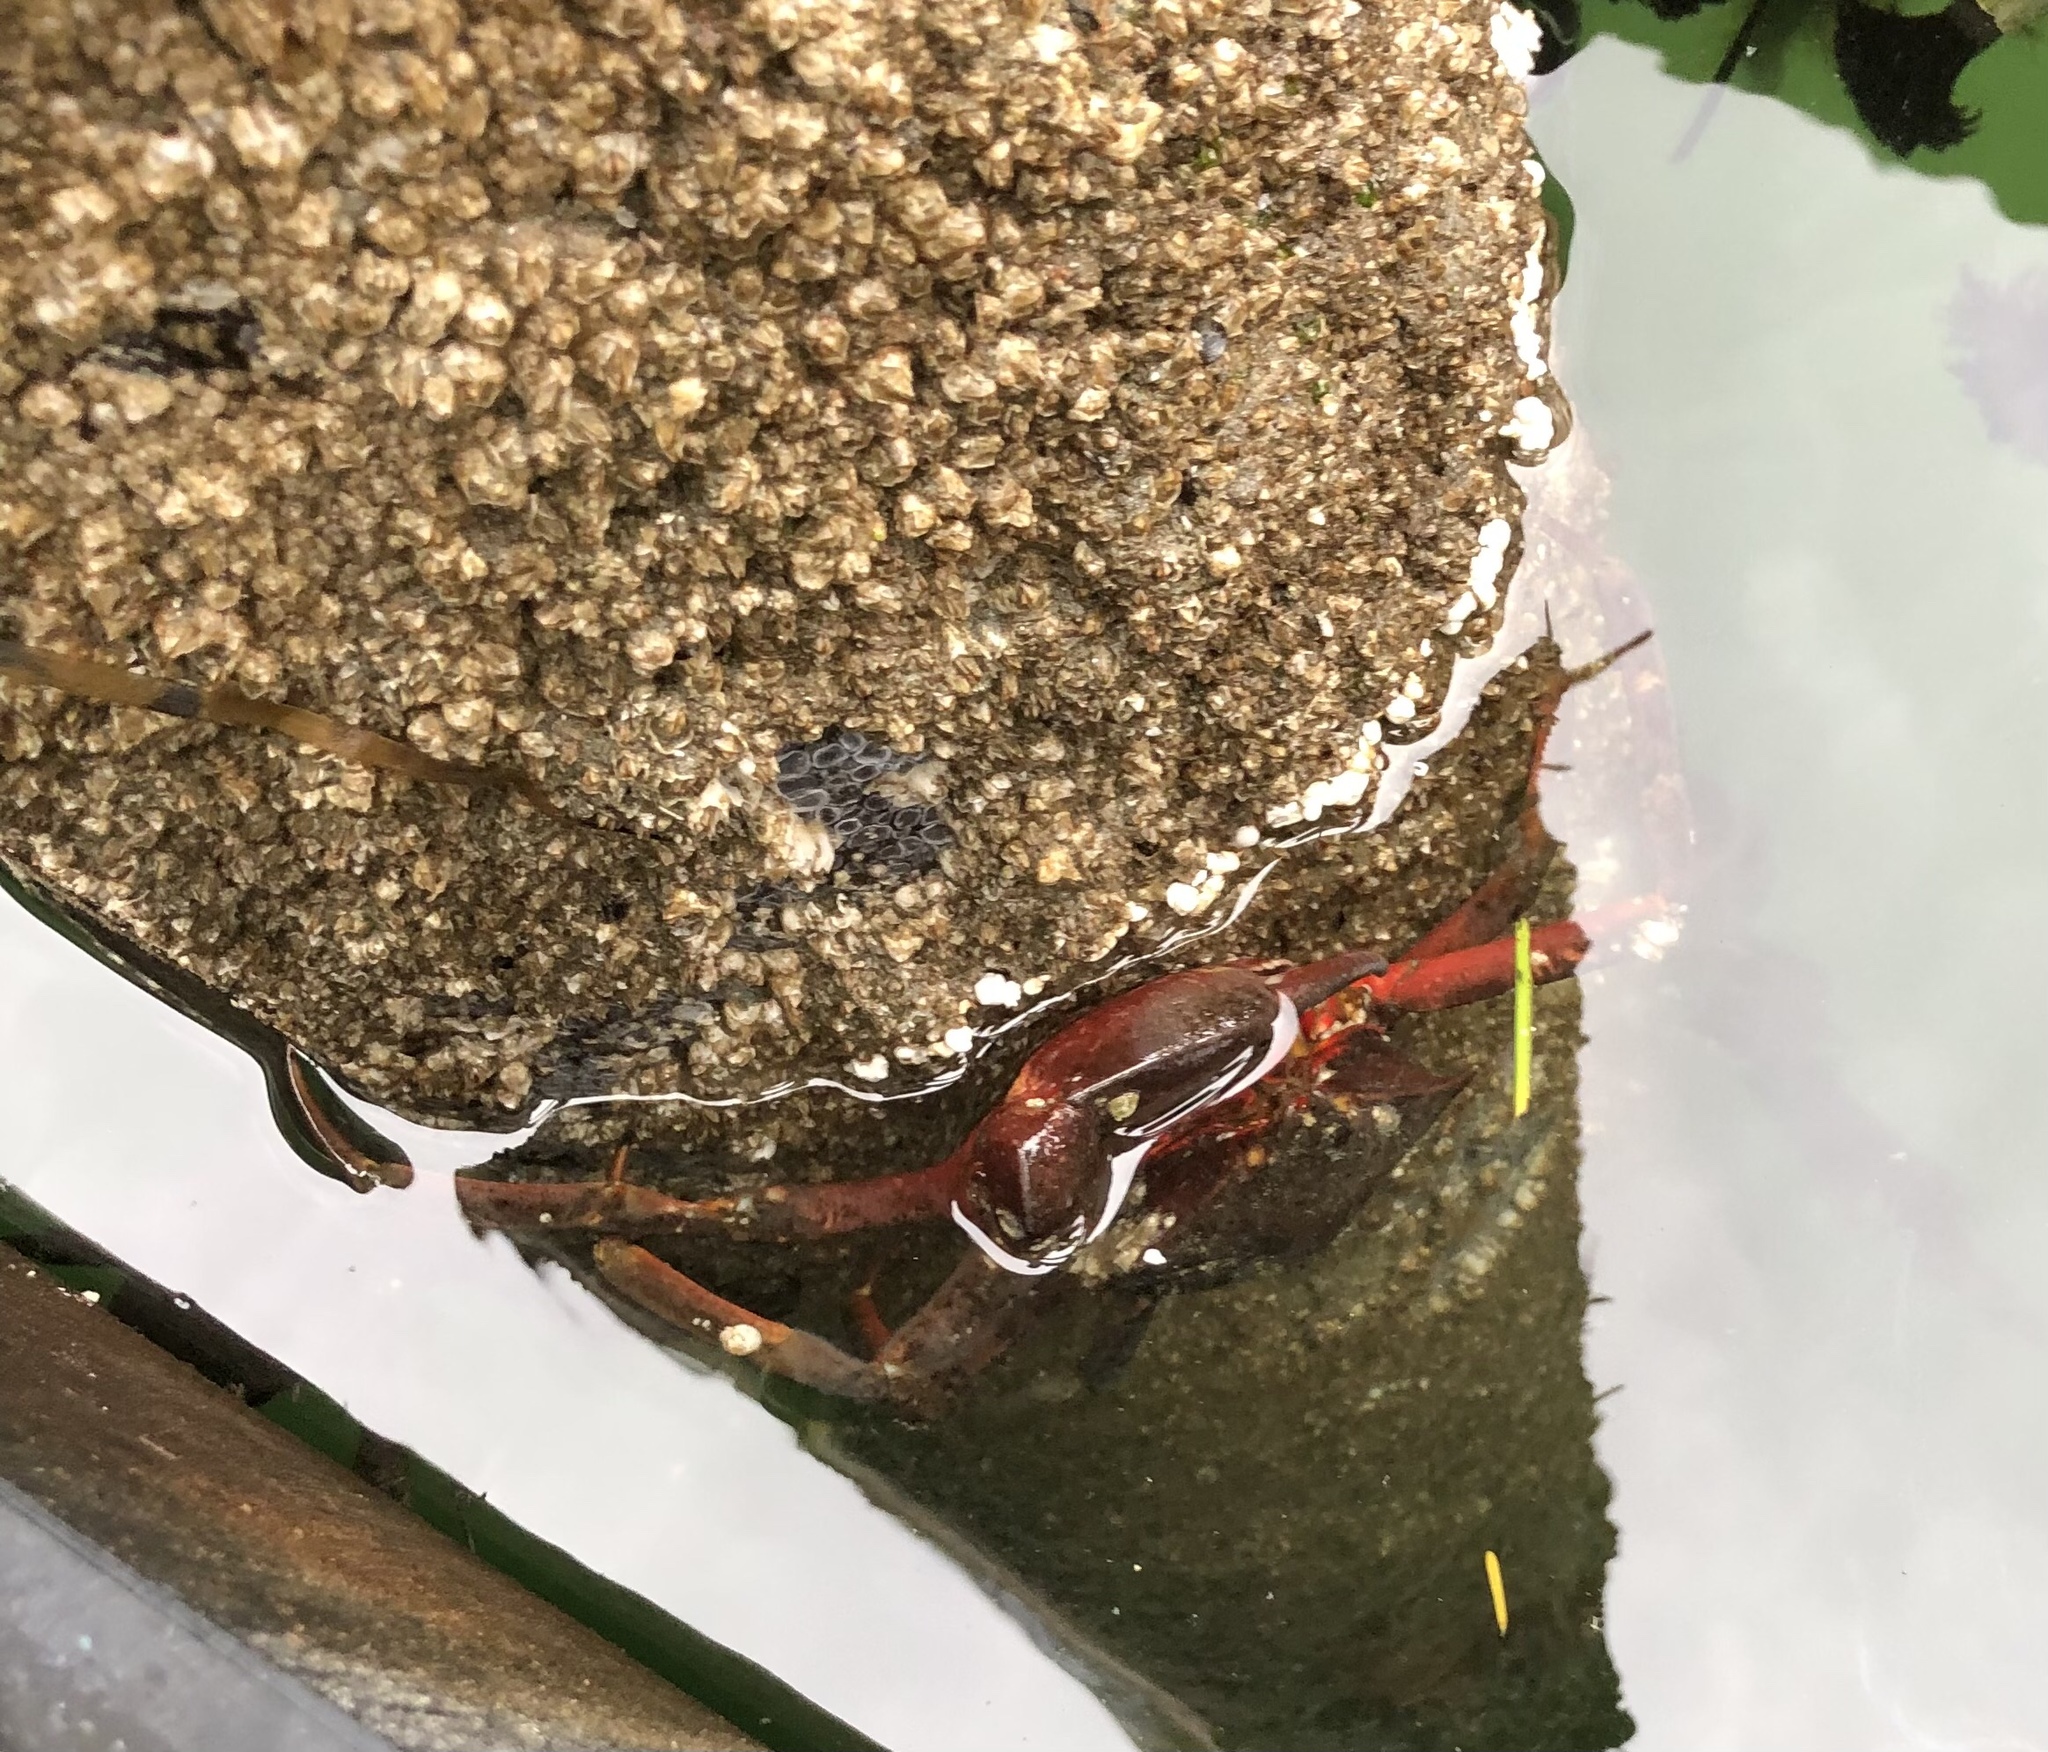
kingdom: Animalia
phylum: Arthropoda
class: Malacostraca
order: Decapoda
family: Epialtidae
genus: Pugettia
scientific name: Pugettia producta
